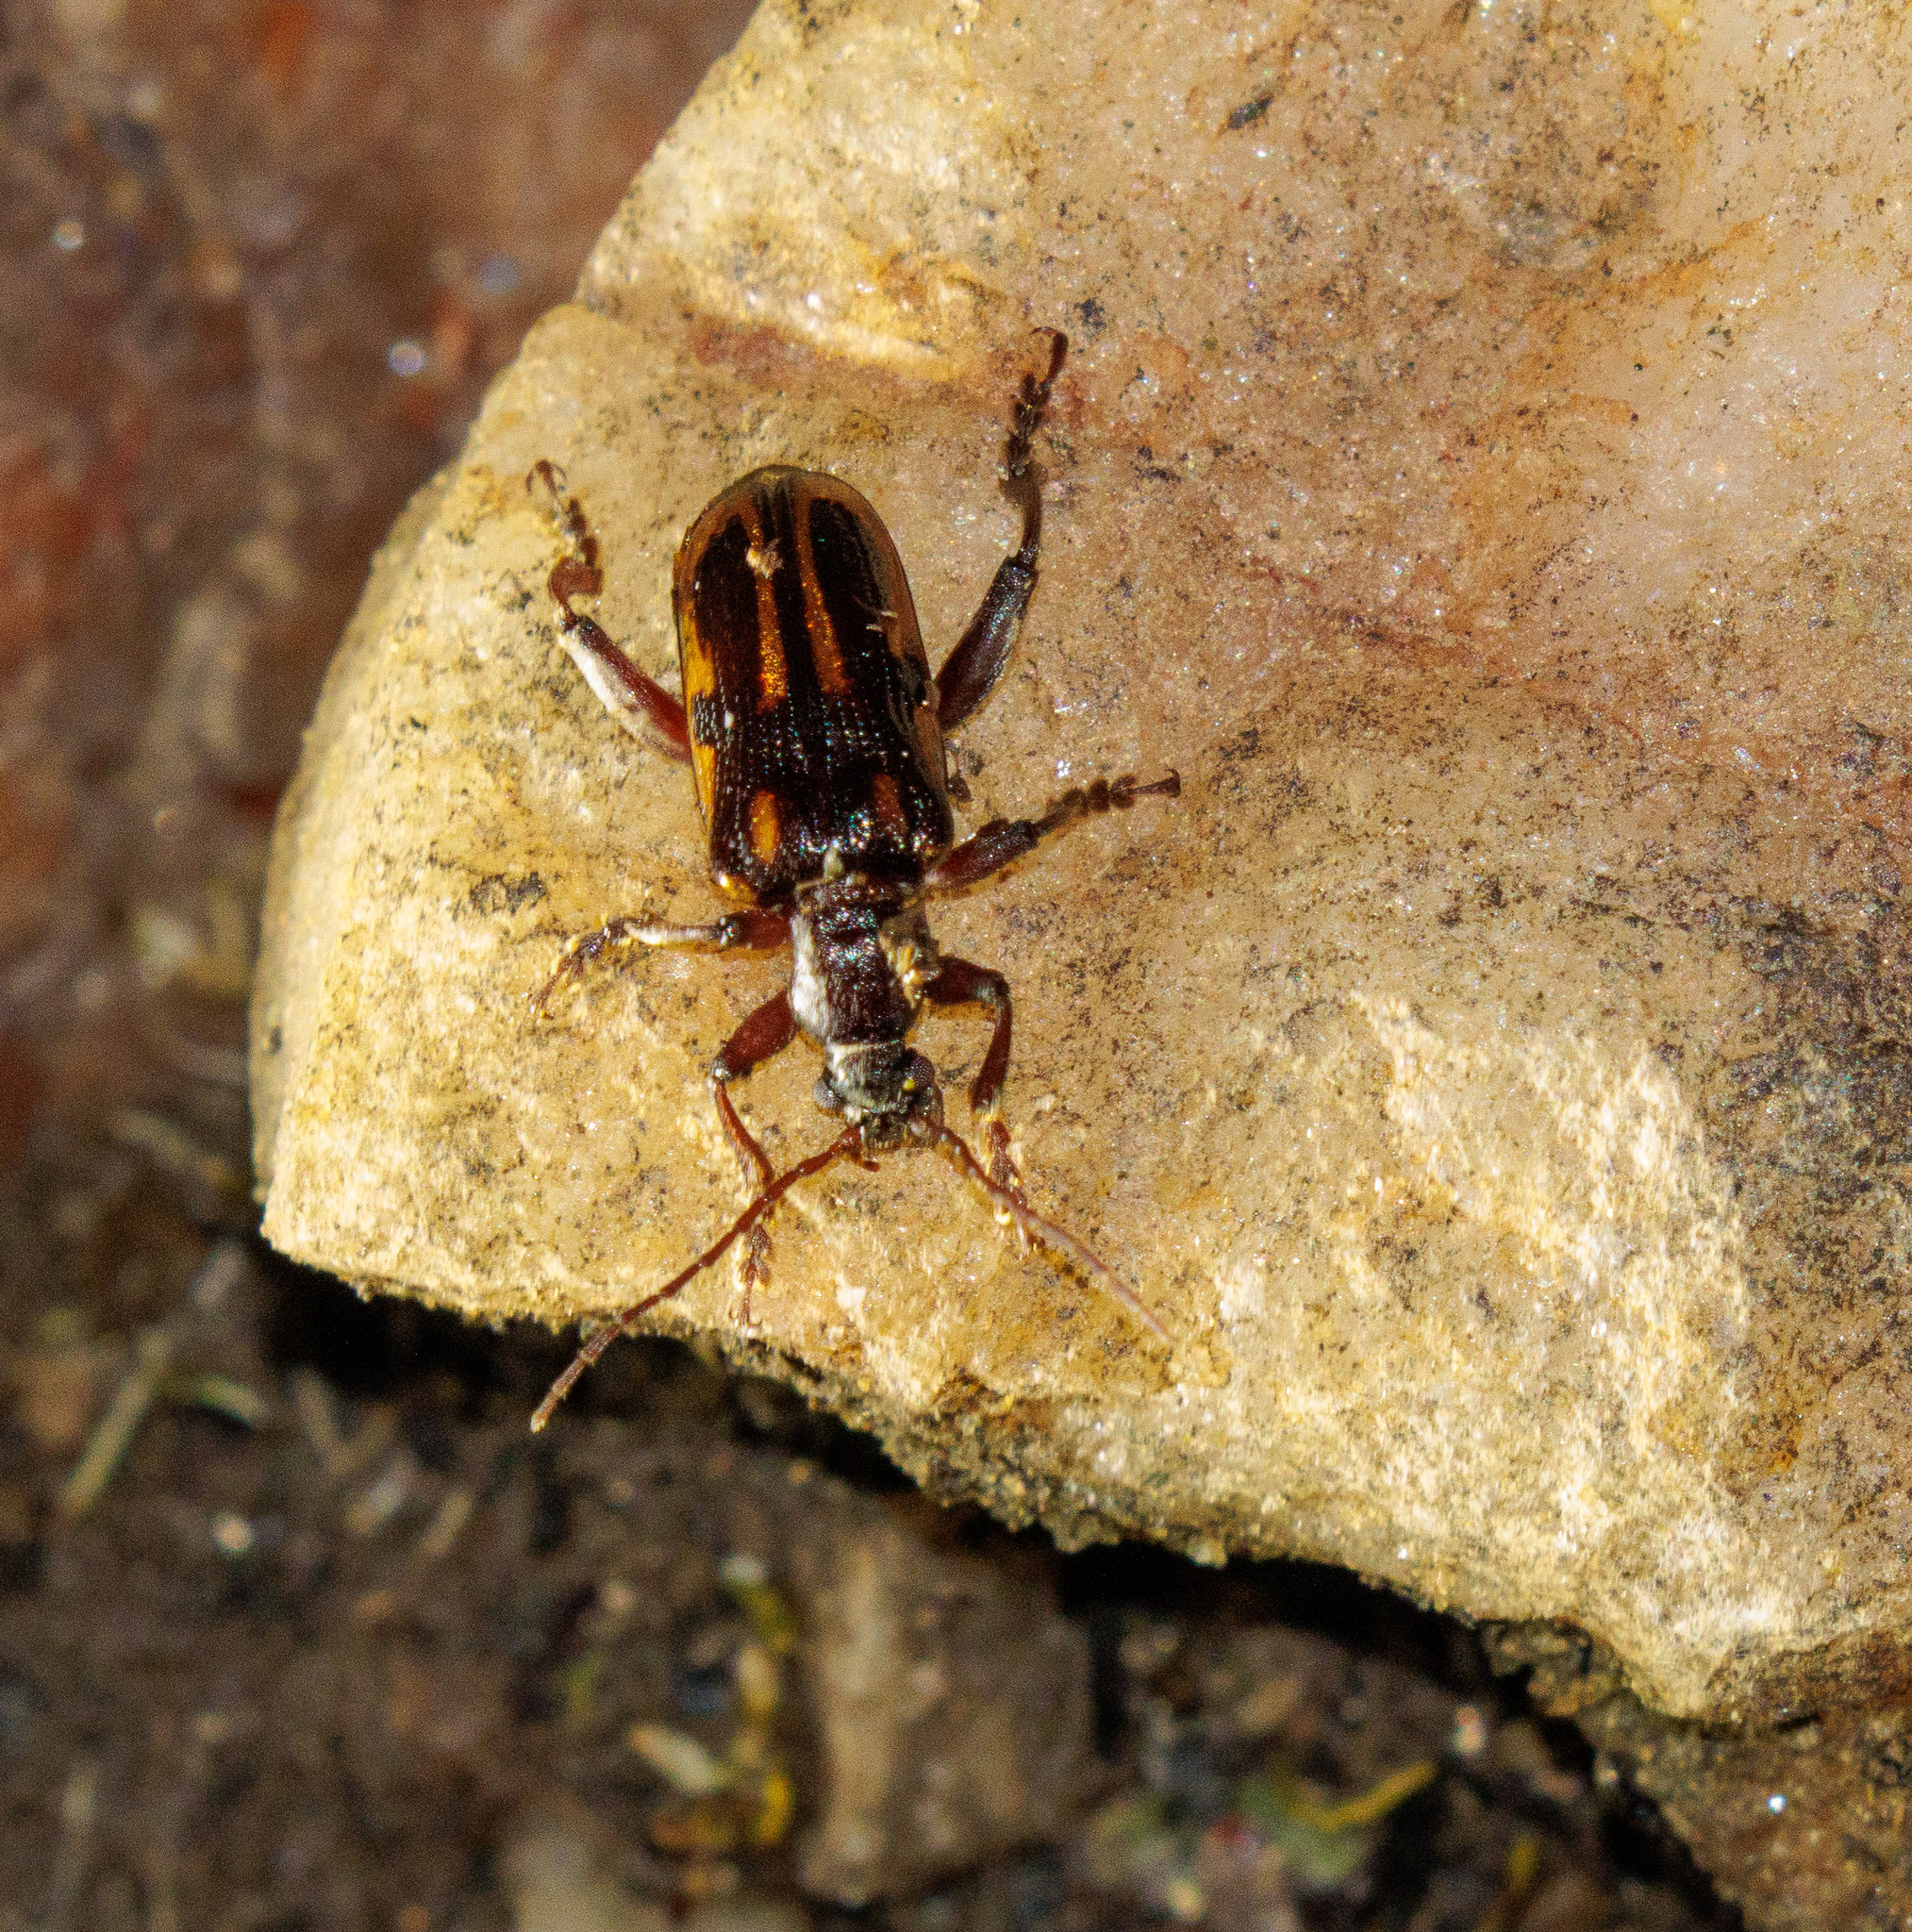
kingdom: Animalia
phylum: Arthropoda
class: Insecta
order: Coleoptera
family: Chrysomelidae
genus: Megamerus
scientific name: Megamerus
